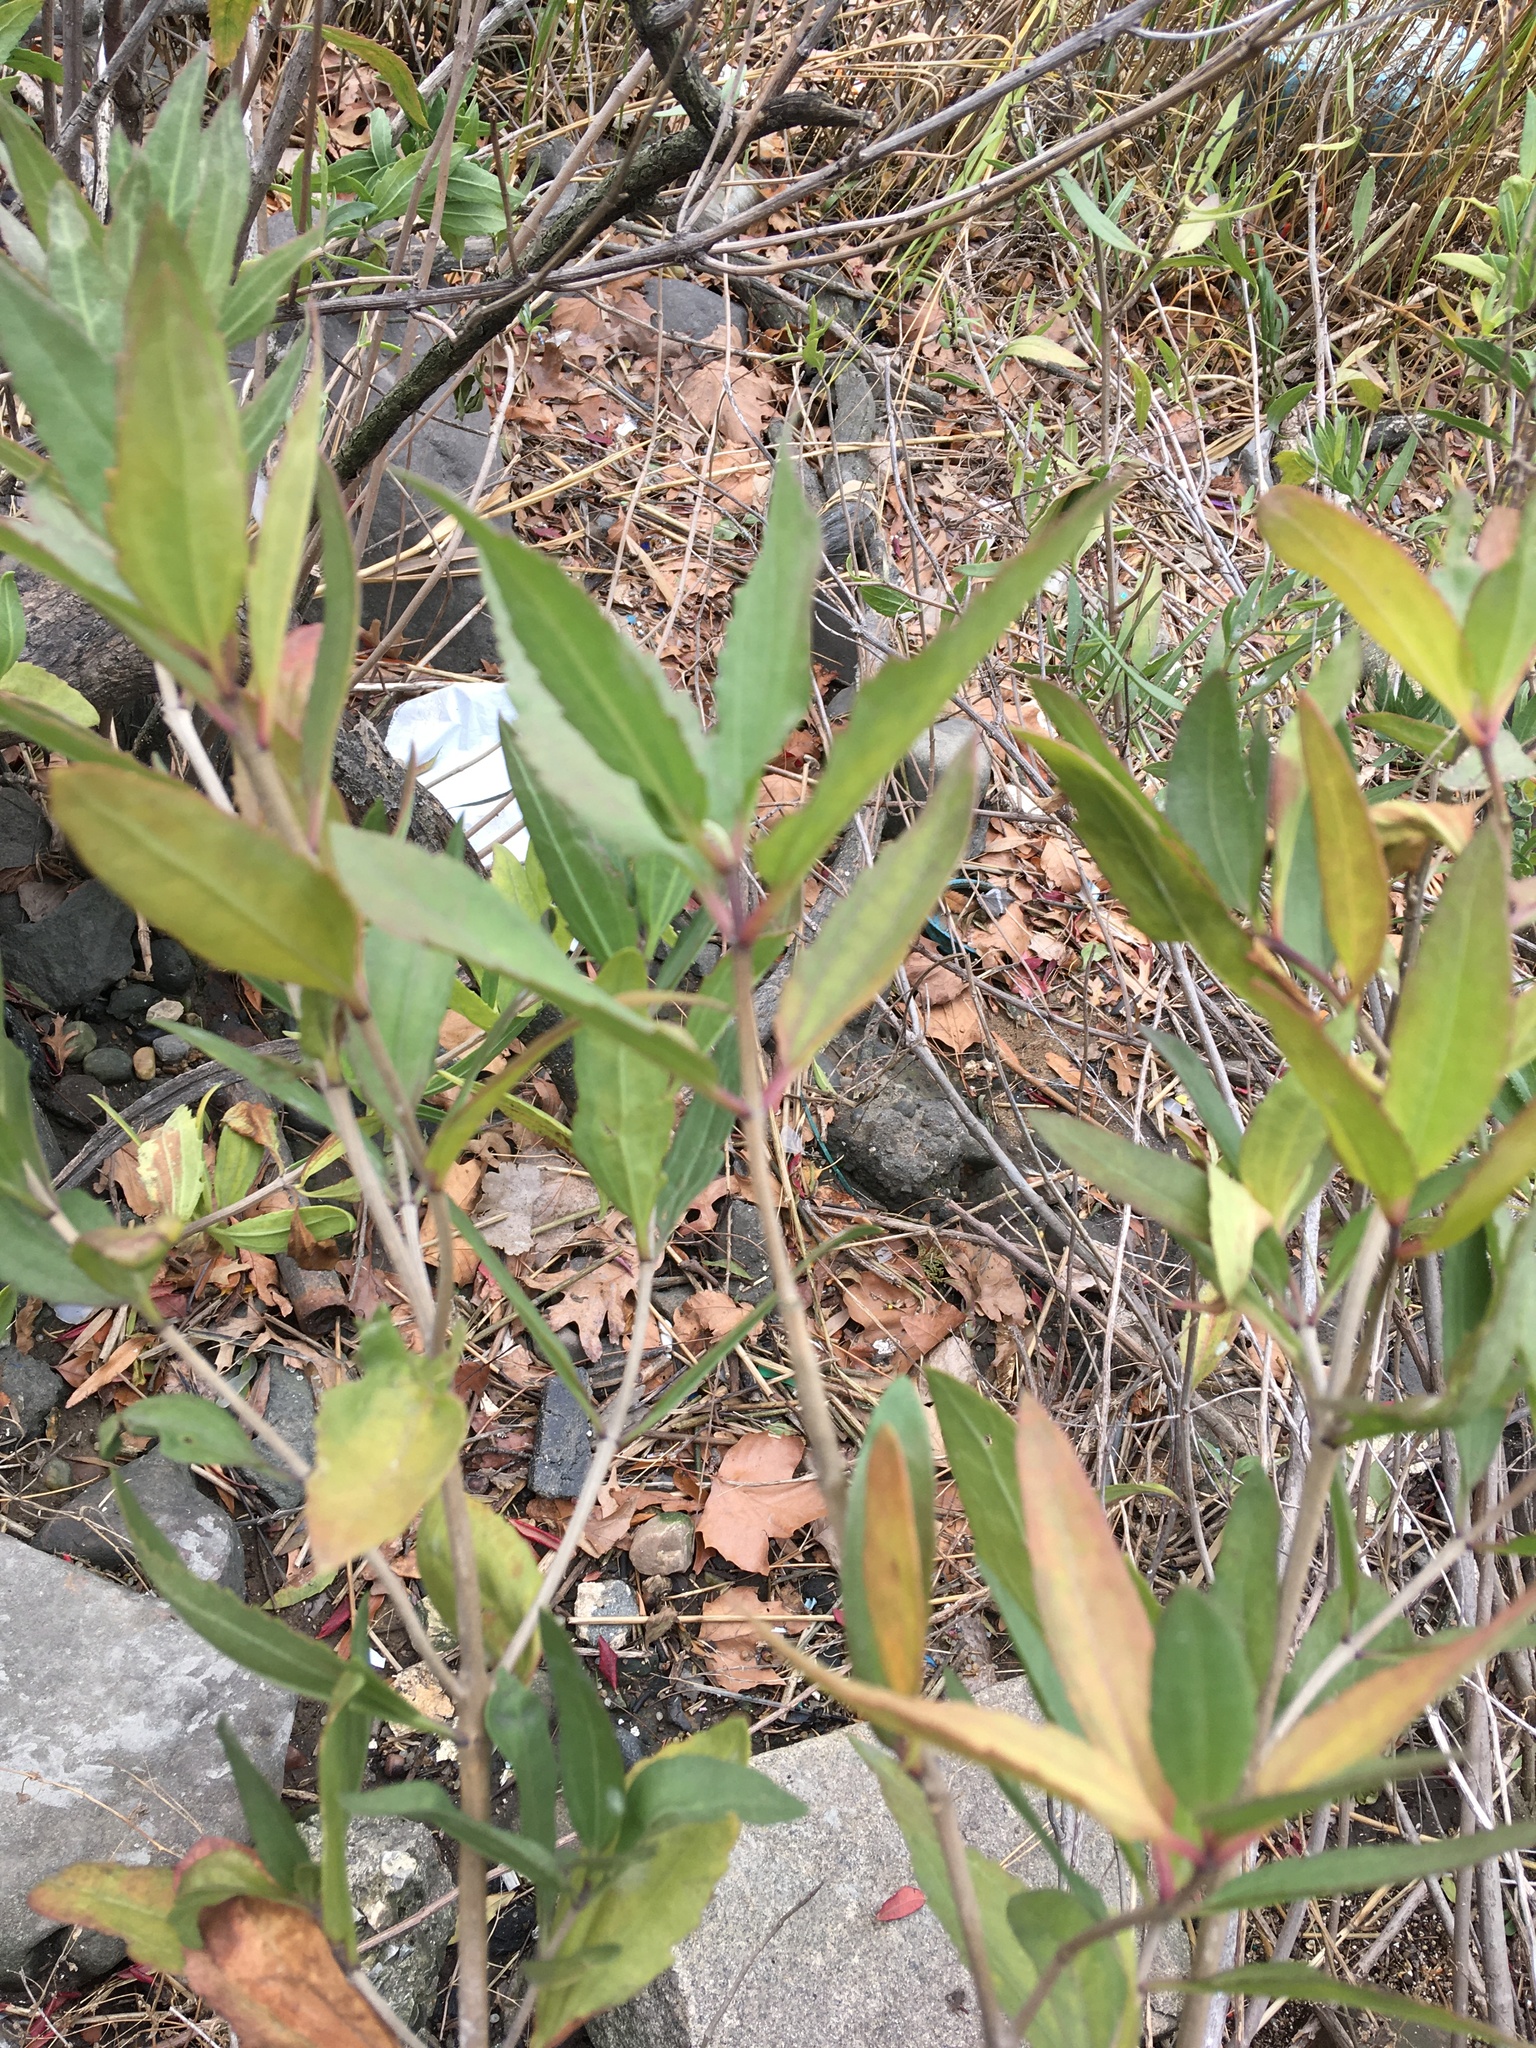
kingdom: Plantae
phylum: Tracheophyta
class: Magnoliopsida
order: Asterales
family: Asteraceae
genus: Iva
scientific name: Iva frutescens
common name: Big-leaved marsh-elder
